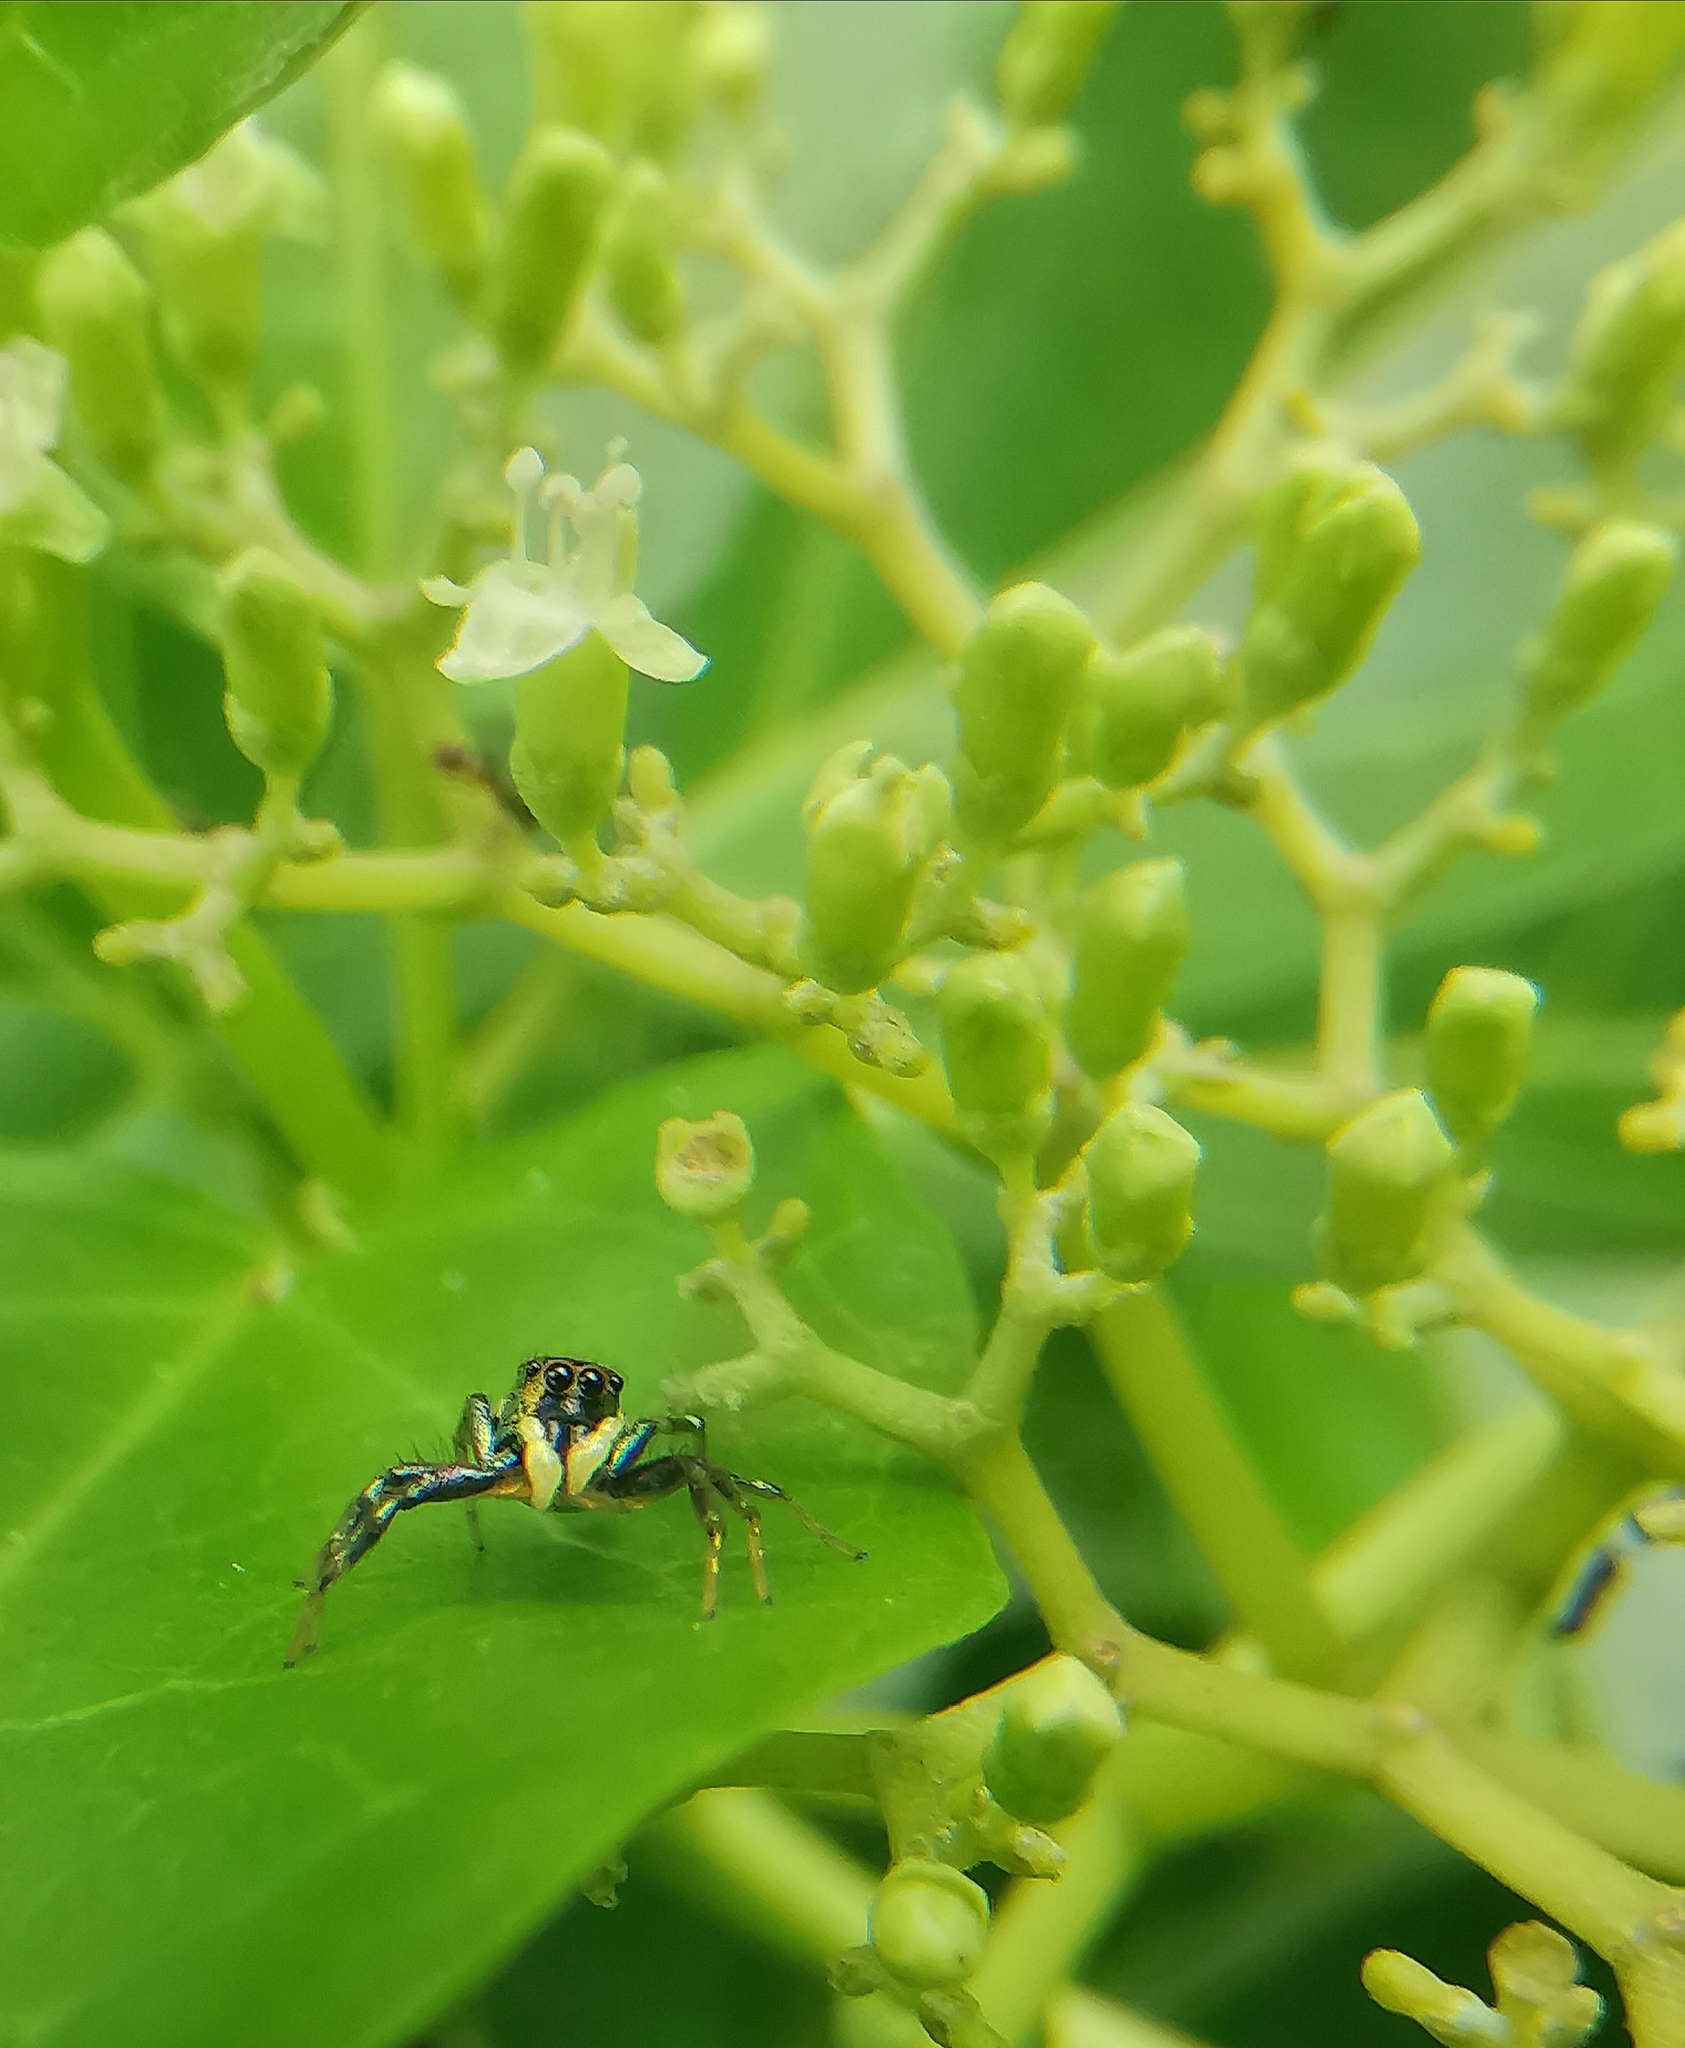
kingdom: Animalia
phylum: Arthropoda
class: Arachnida
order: Araneae
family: Salticidae
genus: Cosmophasis
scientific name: Cosmophasis thalassina
